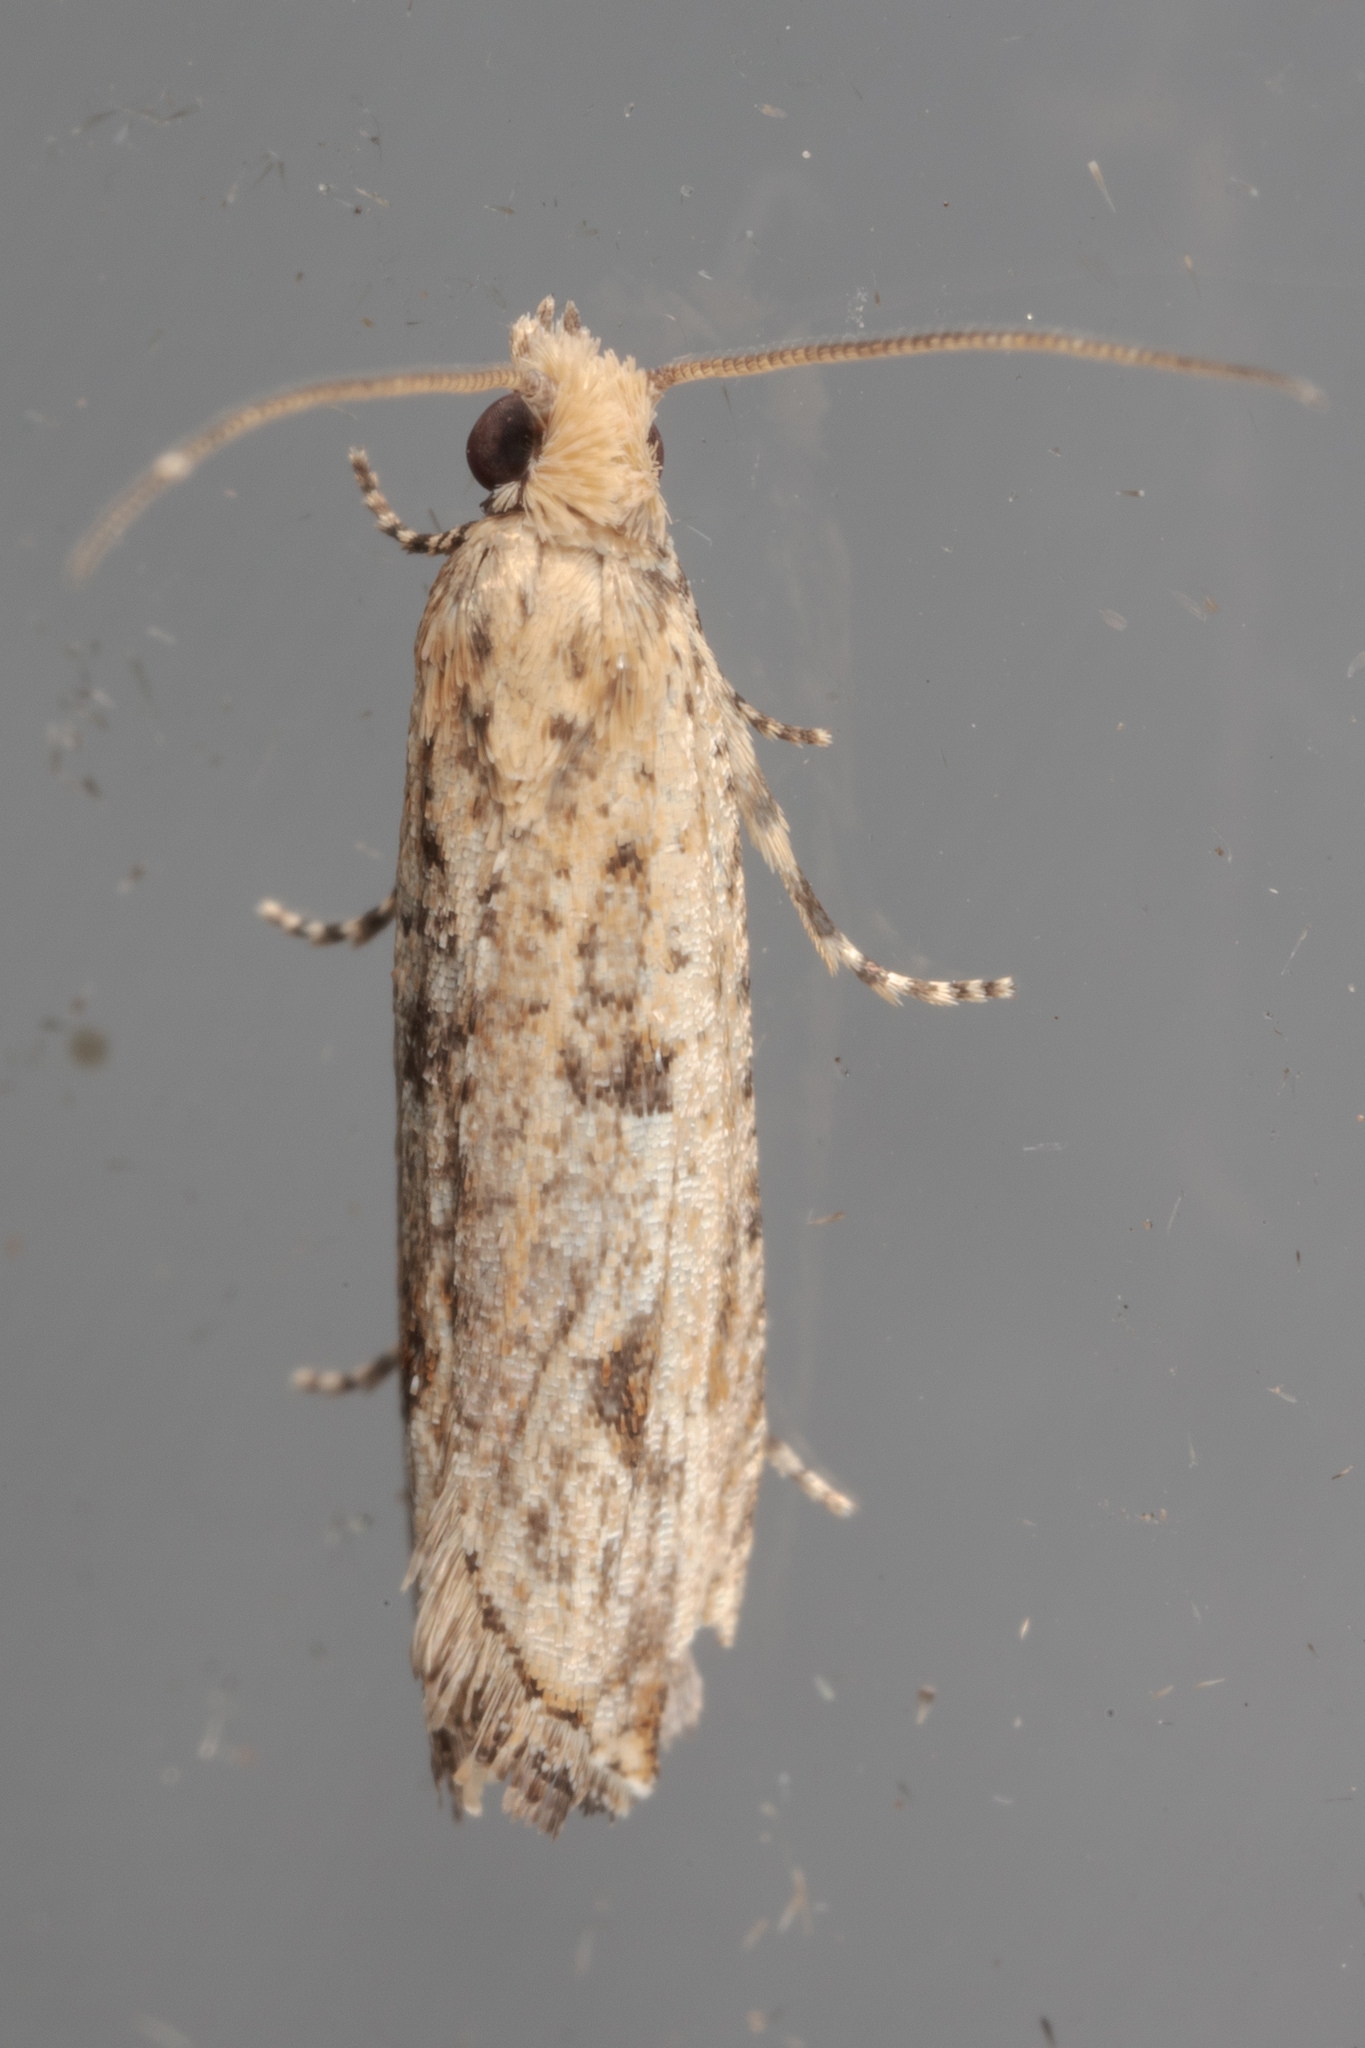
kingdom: Animalia
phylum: Arthropoda
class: Insecta
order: Lepidoptera
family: Tortricidae
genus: Bactra
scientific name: Bactra verutana
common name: Javelin moth
